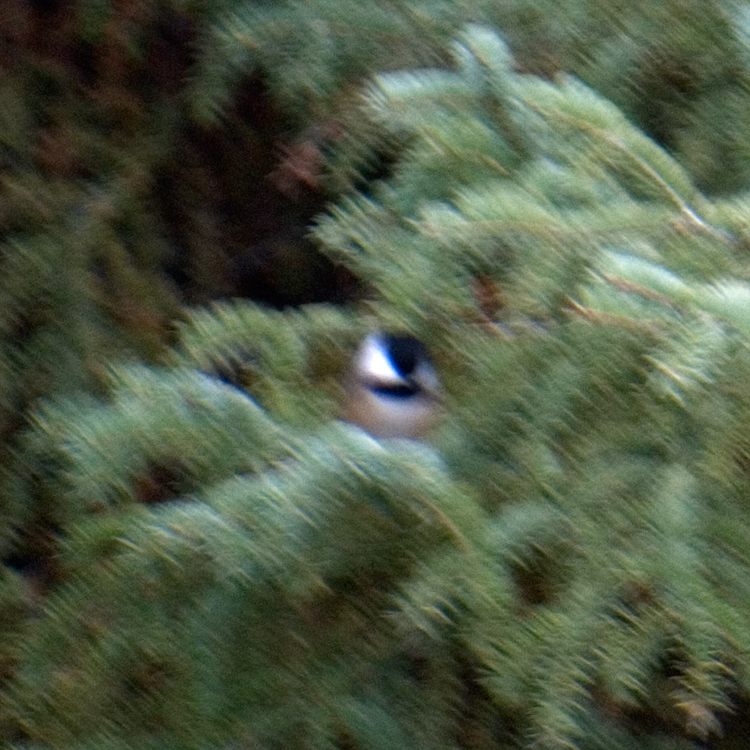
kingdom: Animalia
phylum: Chordata
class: Aves
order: Passeriformes
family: Paridae
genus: Poecile
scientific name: Poecile atricapillus
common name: Black-capped chickadee
